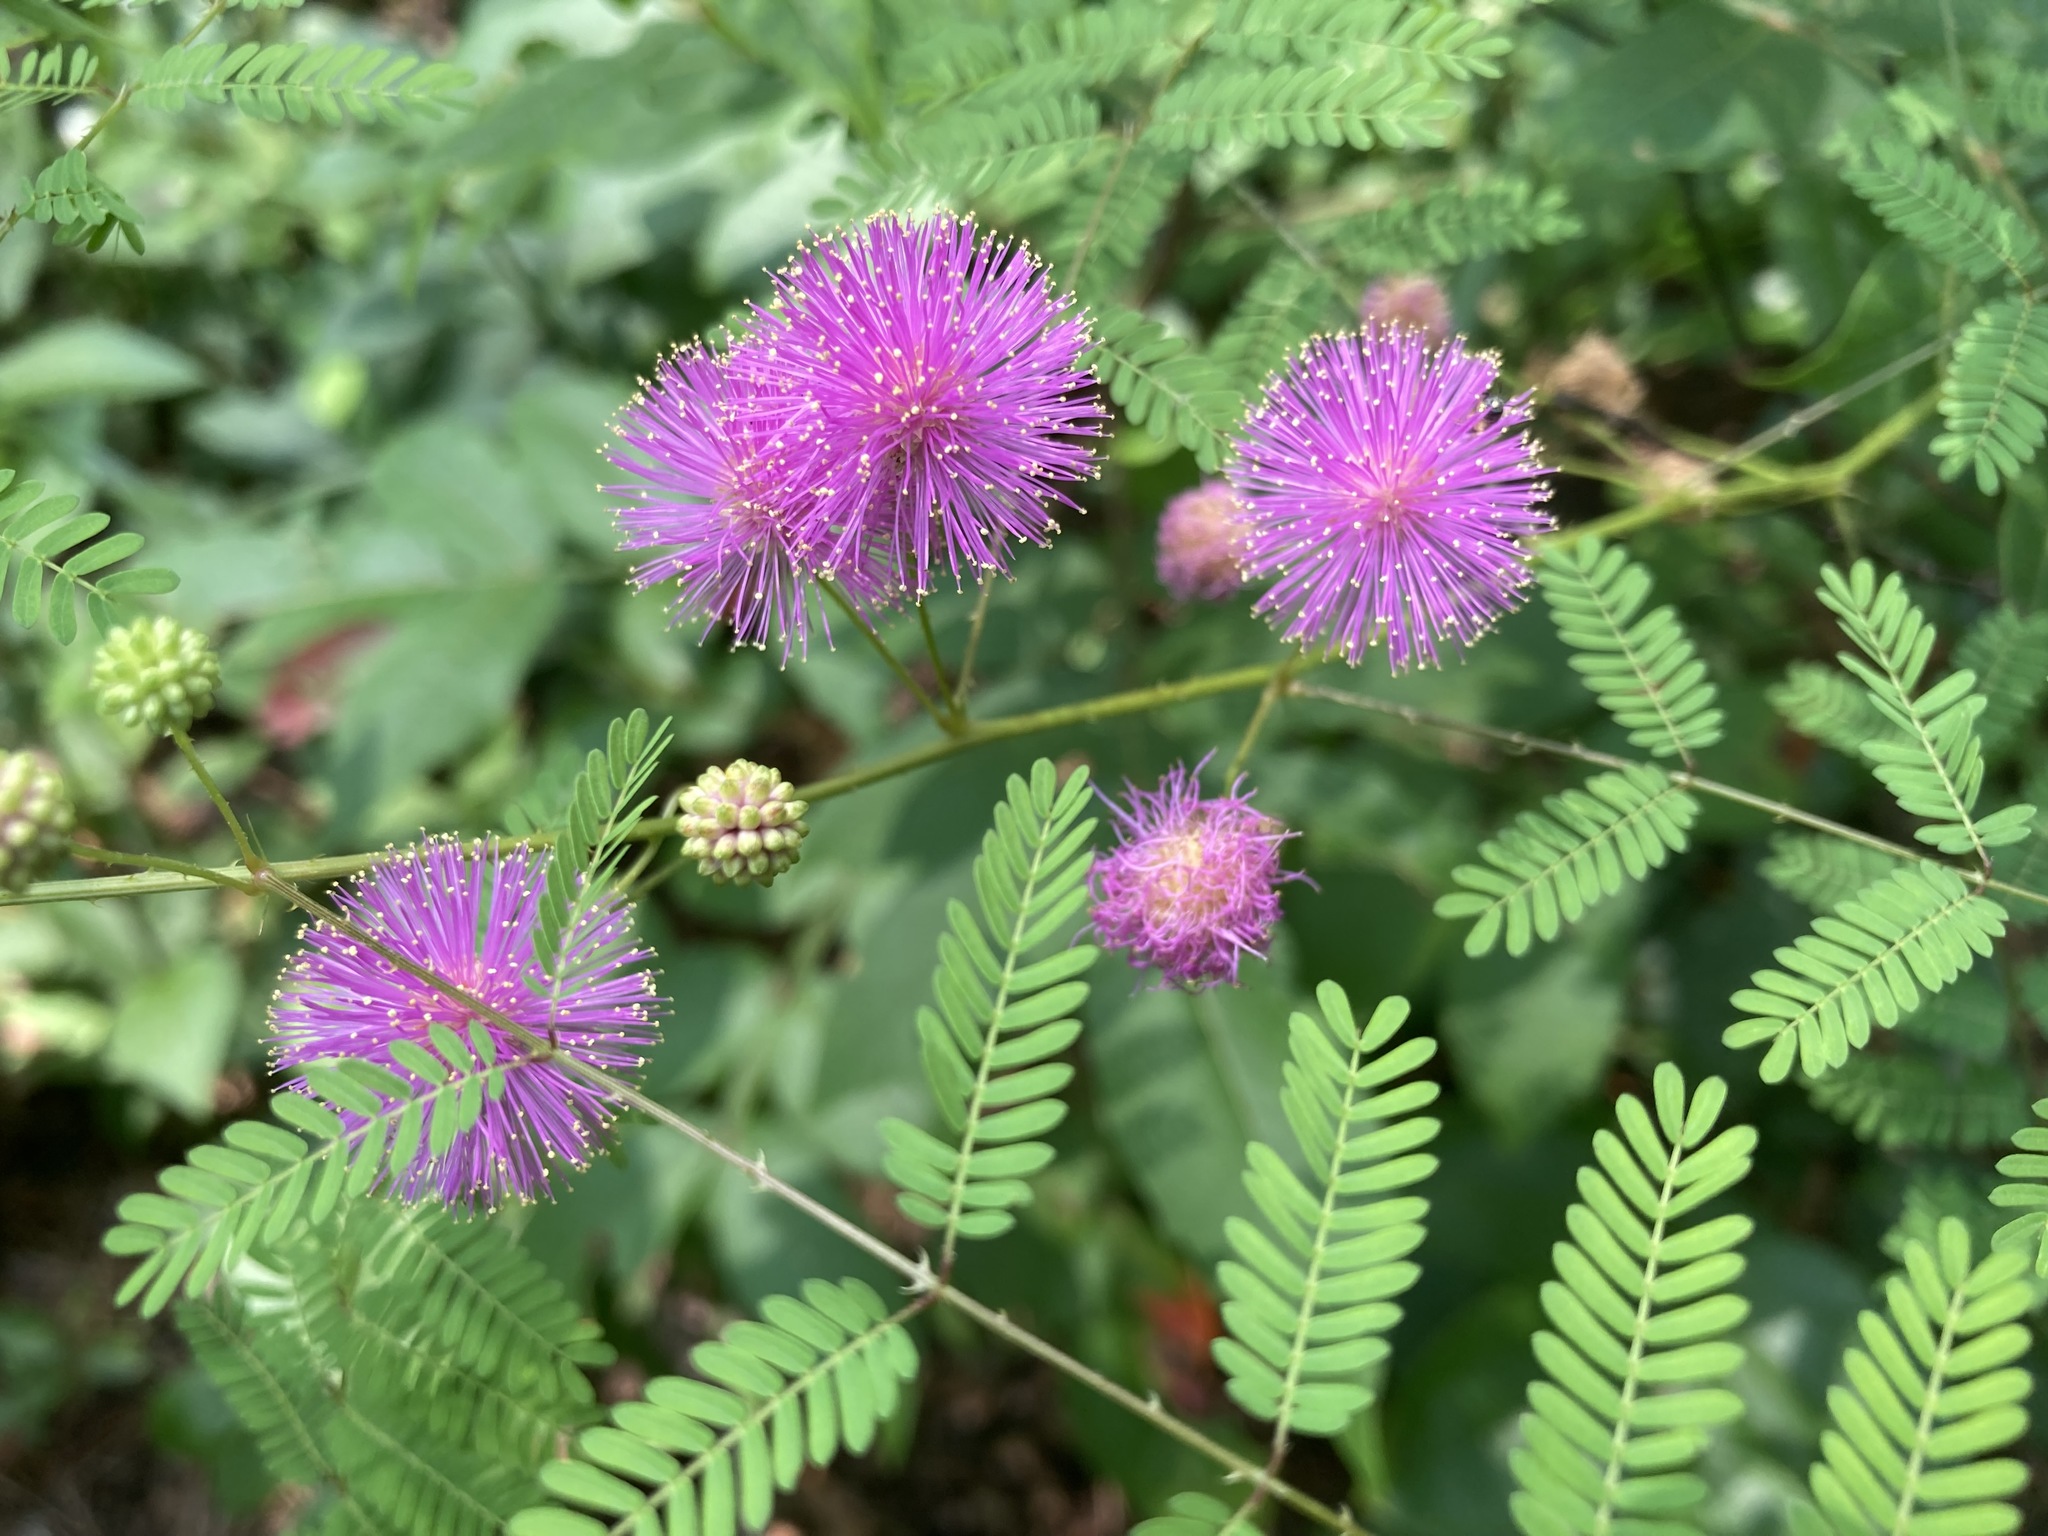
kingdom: Plantae
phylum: Tracheophyta
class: Magnoliopsida
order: Fabales
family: Fabaceae
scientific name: Fabaceae
